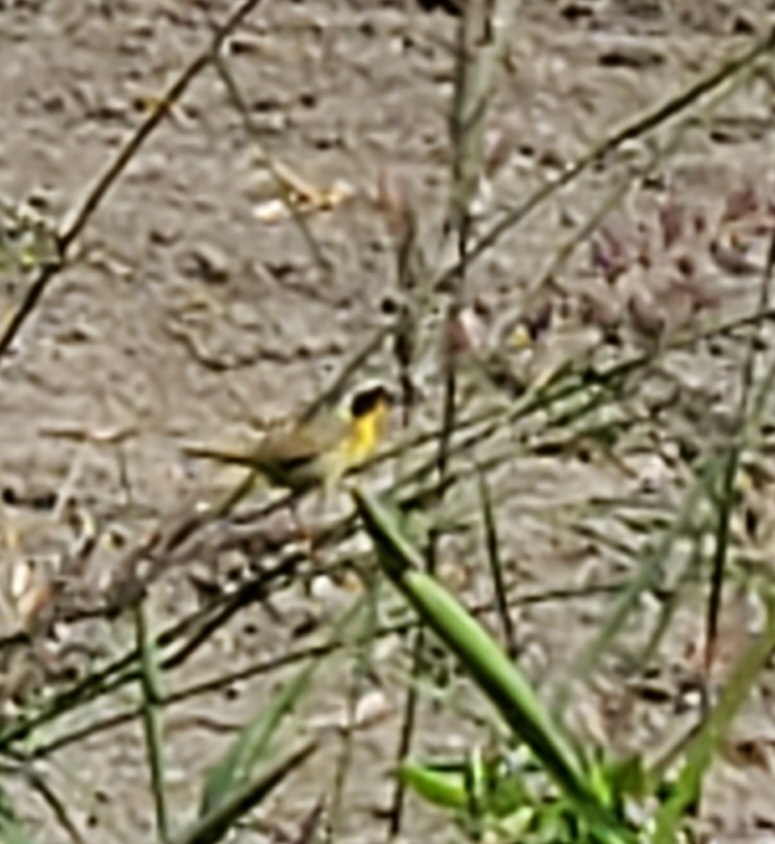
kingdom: Animalia
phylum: Chordata
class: Aves
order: Passeriformes
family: Parulidae
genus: Geothlypis
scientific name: Geothlypis trichas
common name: Common yellowthroat
